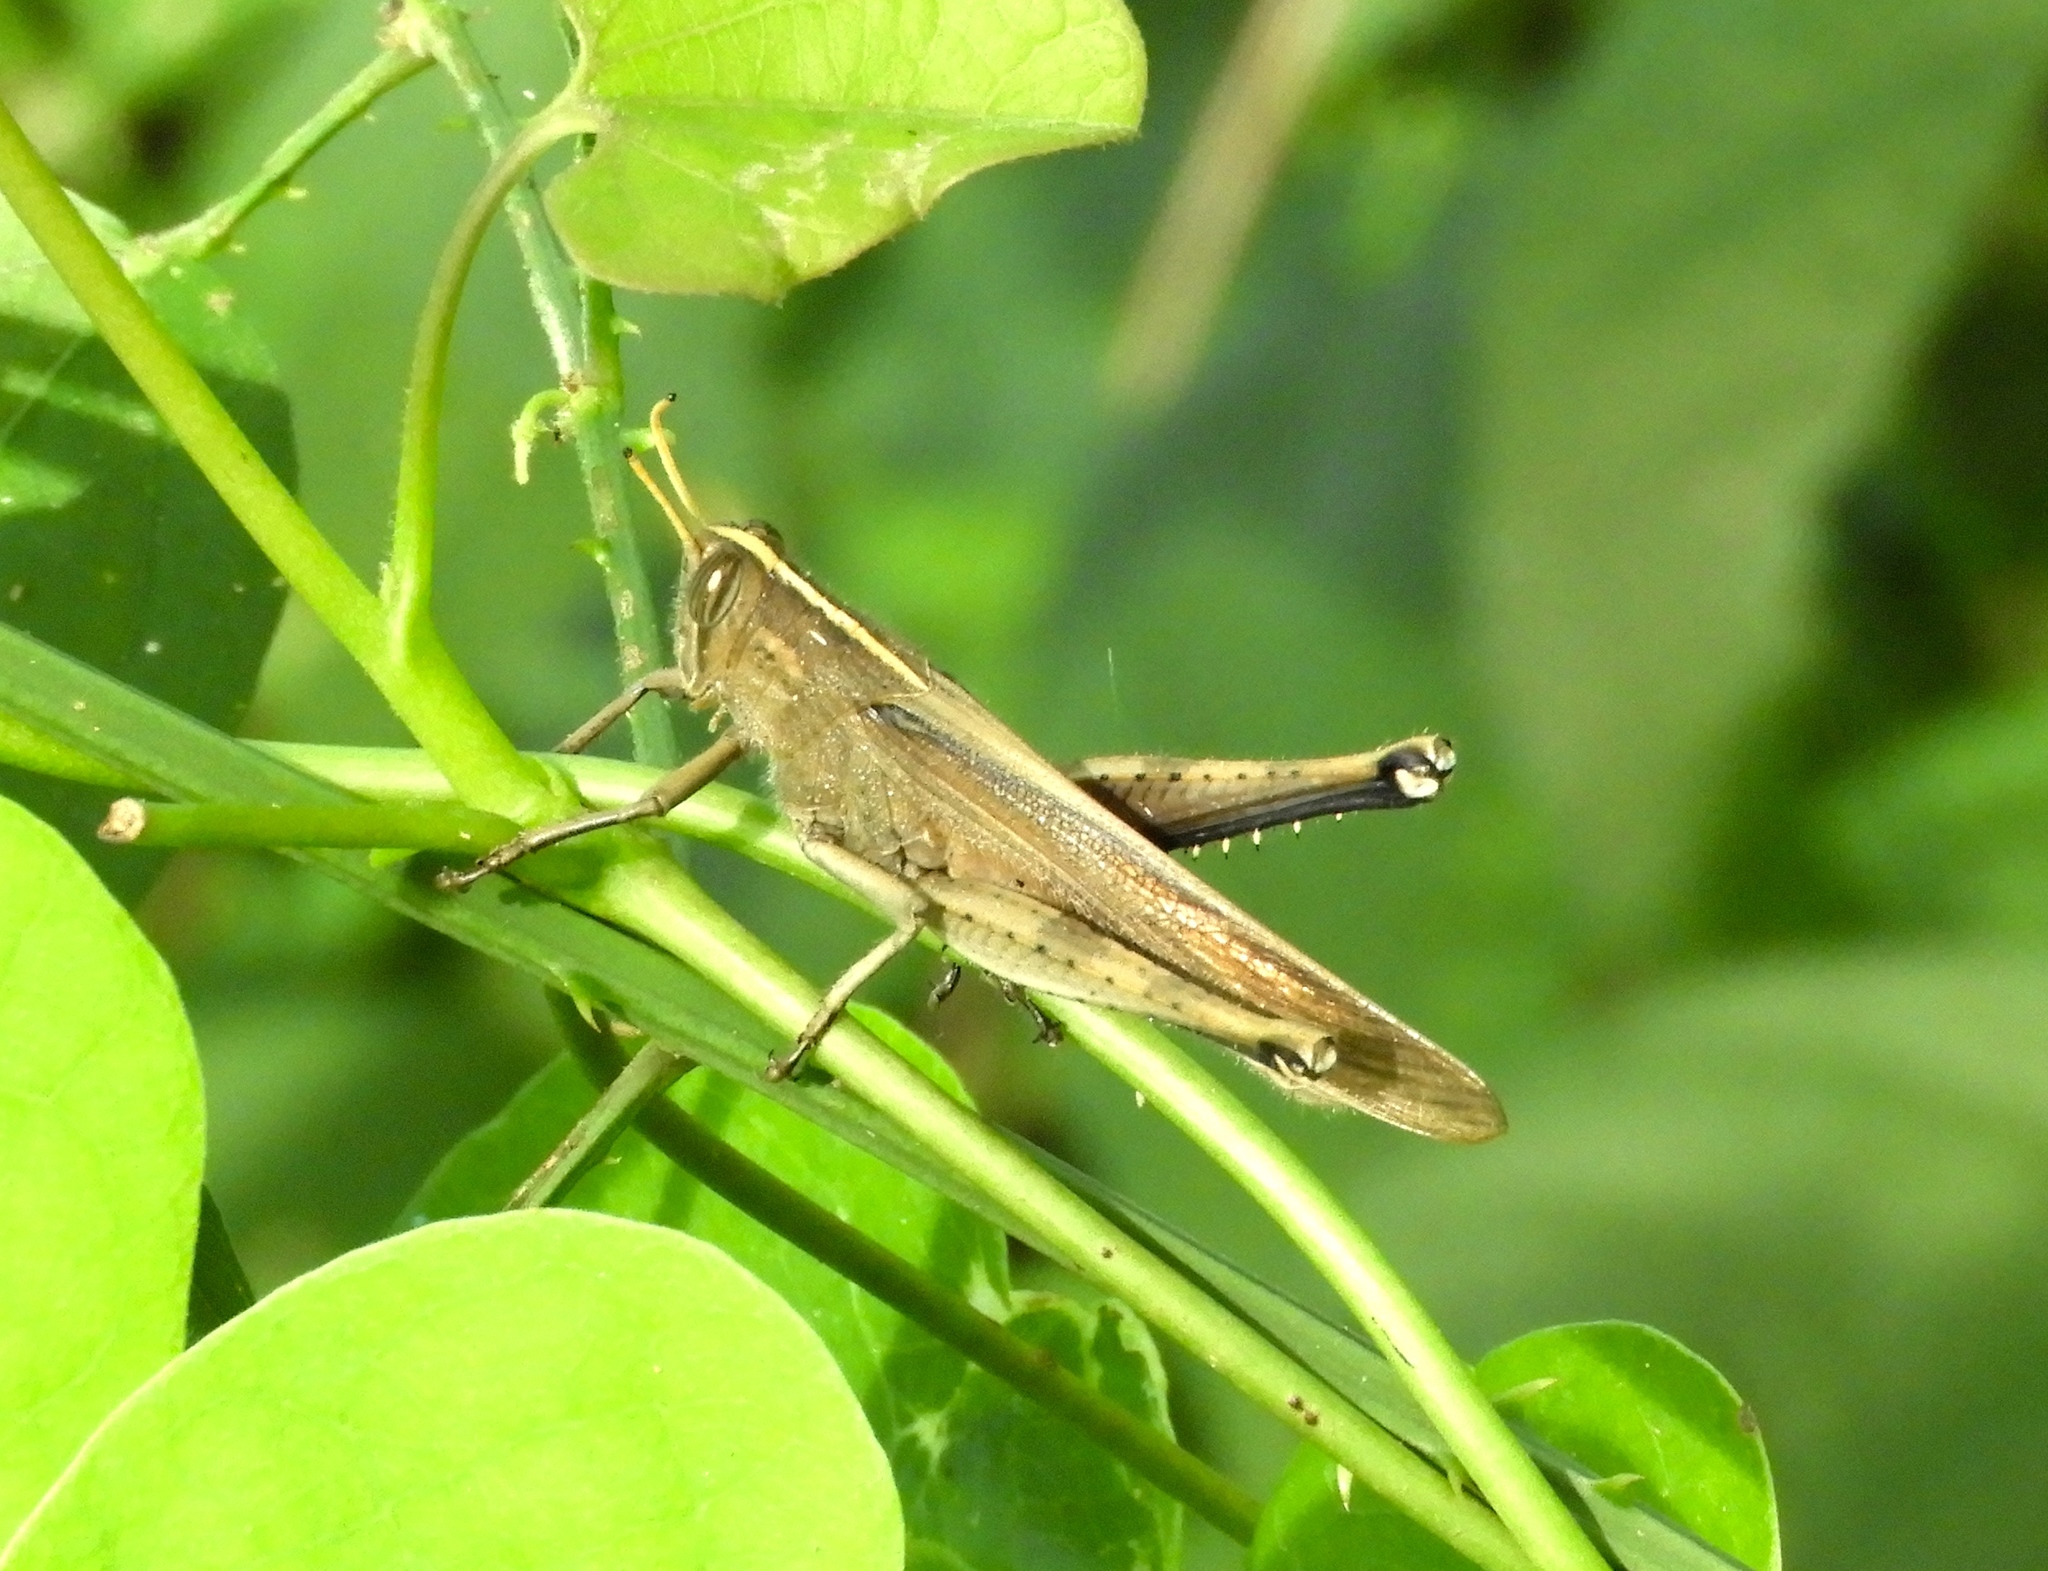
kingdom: Animalia
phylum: Arthropoda
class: Insecta
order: Orthoptera
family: Acrididae
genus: Schistocerca
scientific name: Schistocerca
